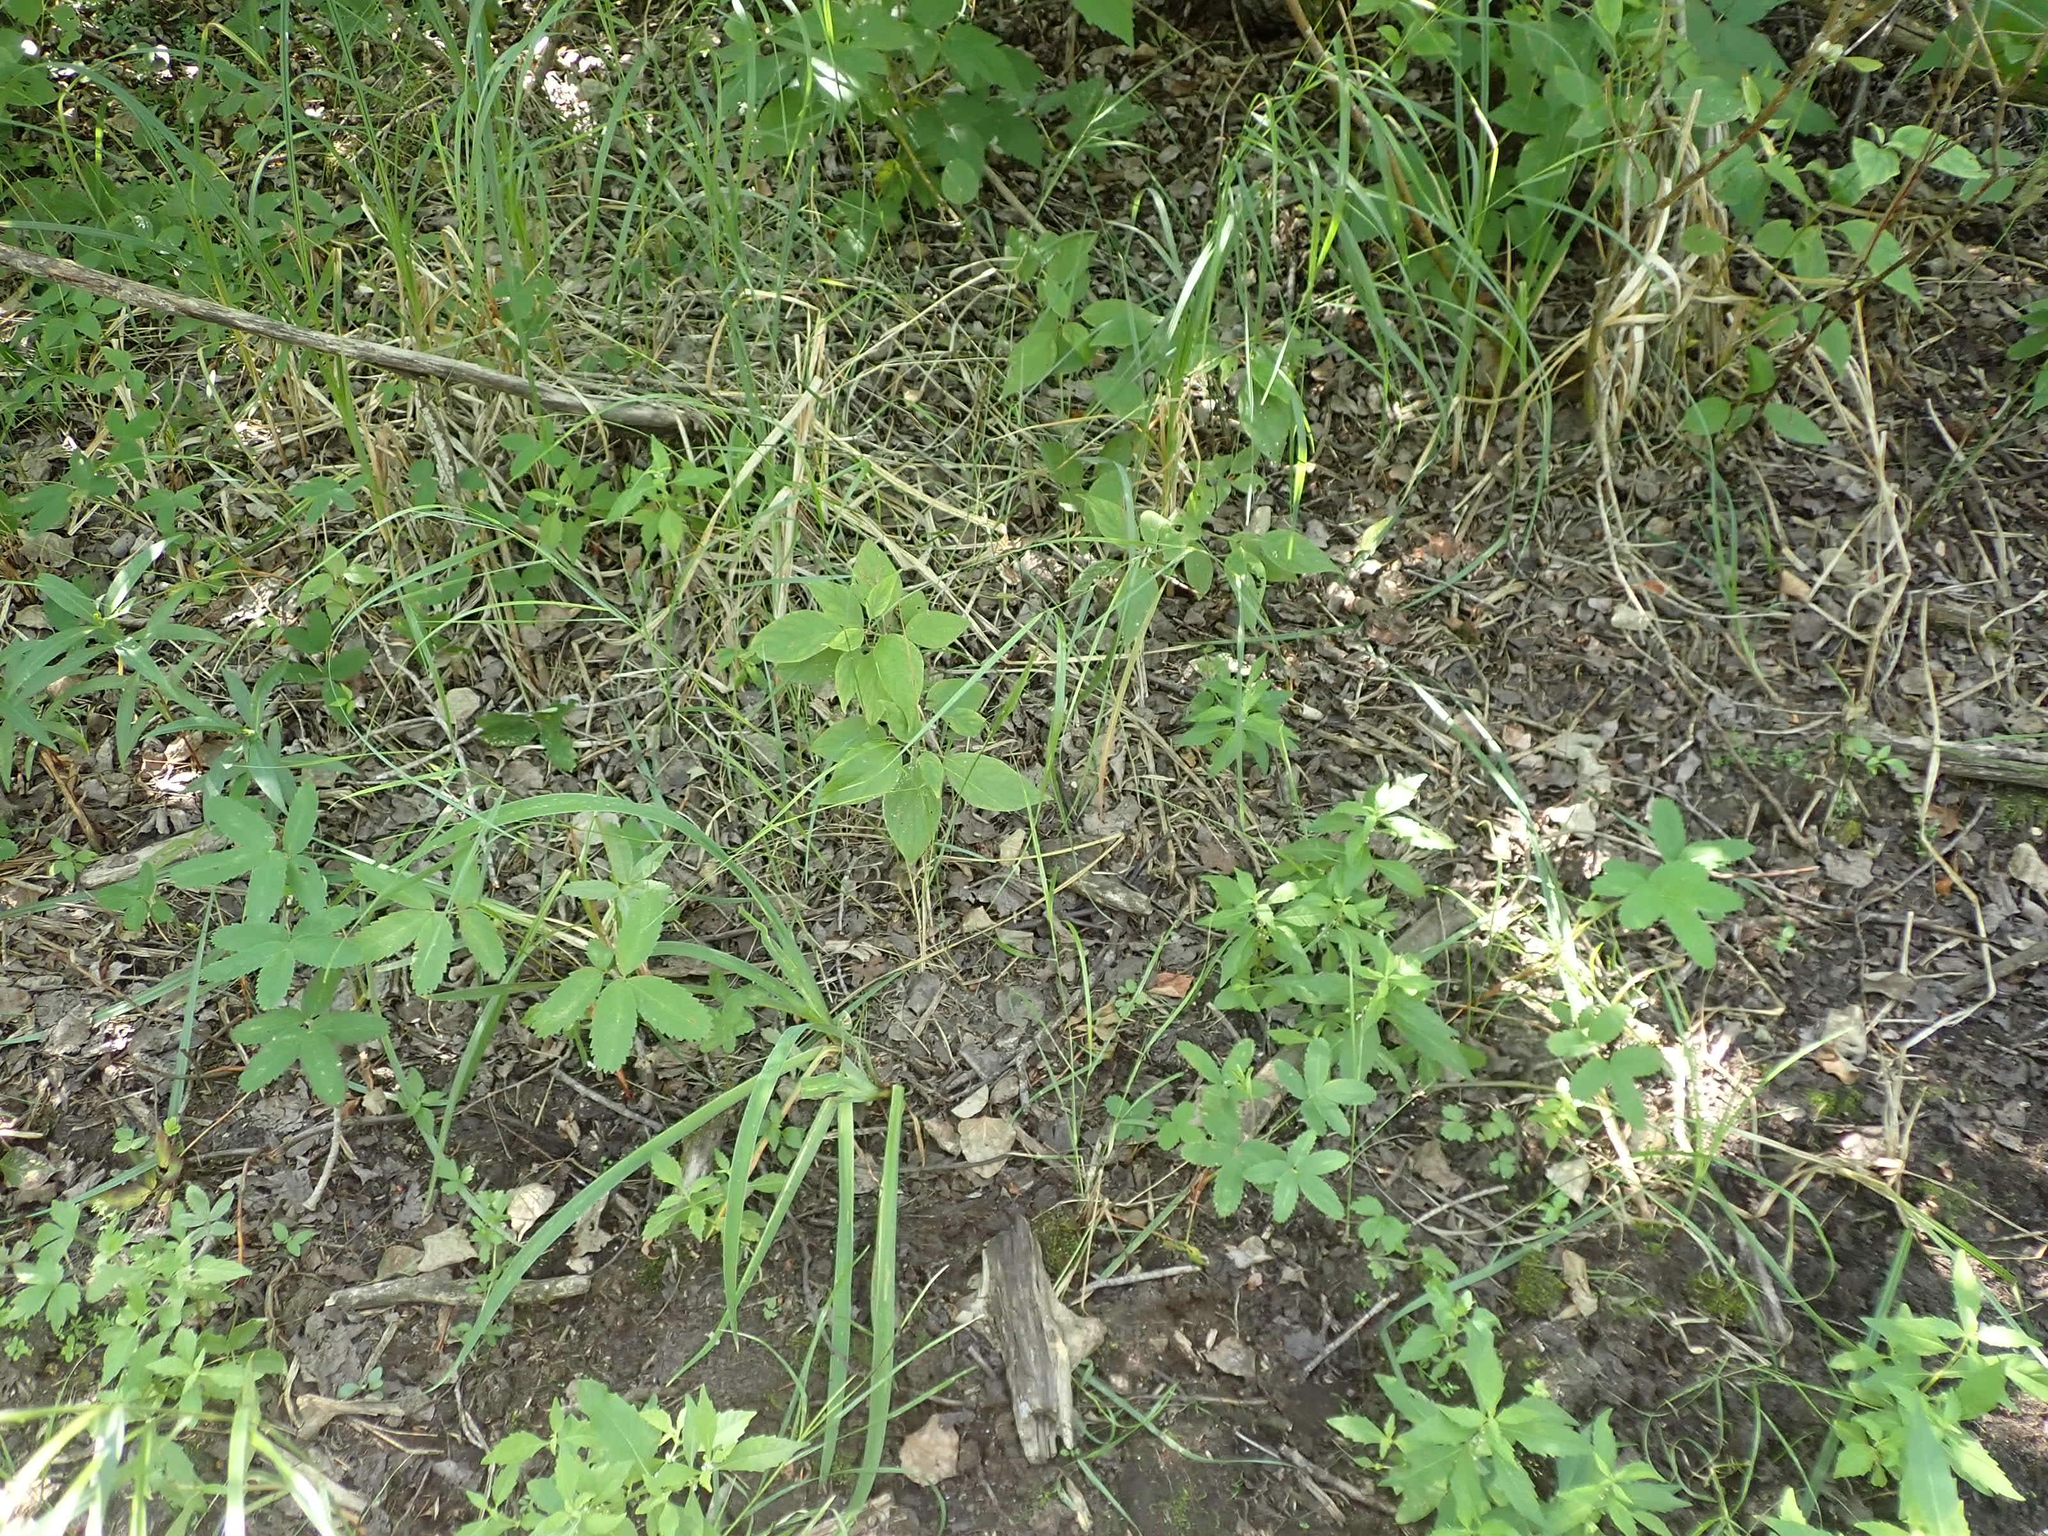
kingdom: Plantae
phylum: Tracheophyta
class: Magnoliopsida
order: Rosales
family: Rosaceae
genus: Comarum
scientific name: Comarum palustre
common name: Marsh cinquefoil
